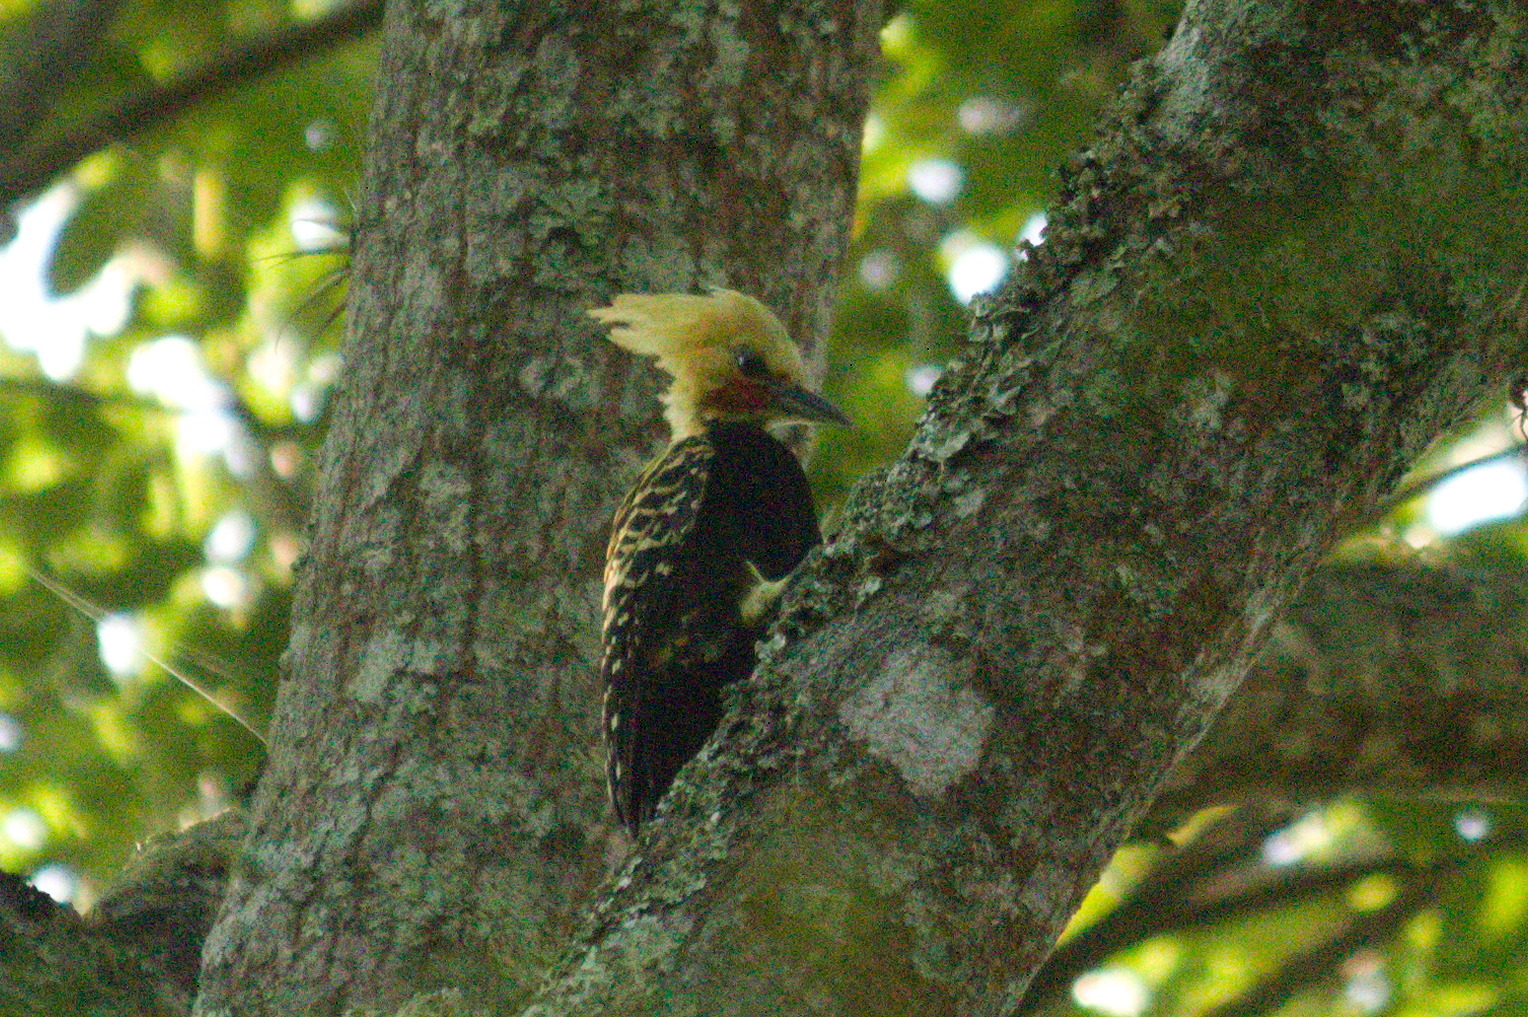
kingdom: Animalia
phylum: Chordata
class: Aves
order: Piciformes
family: Picidae
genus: Celeus
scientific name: Celeus flavescens
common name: Blond-crested woodpecker
